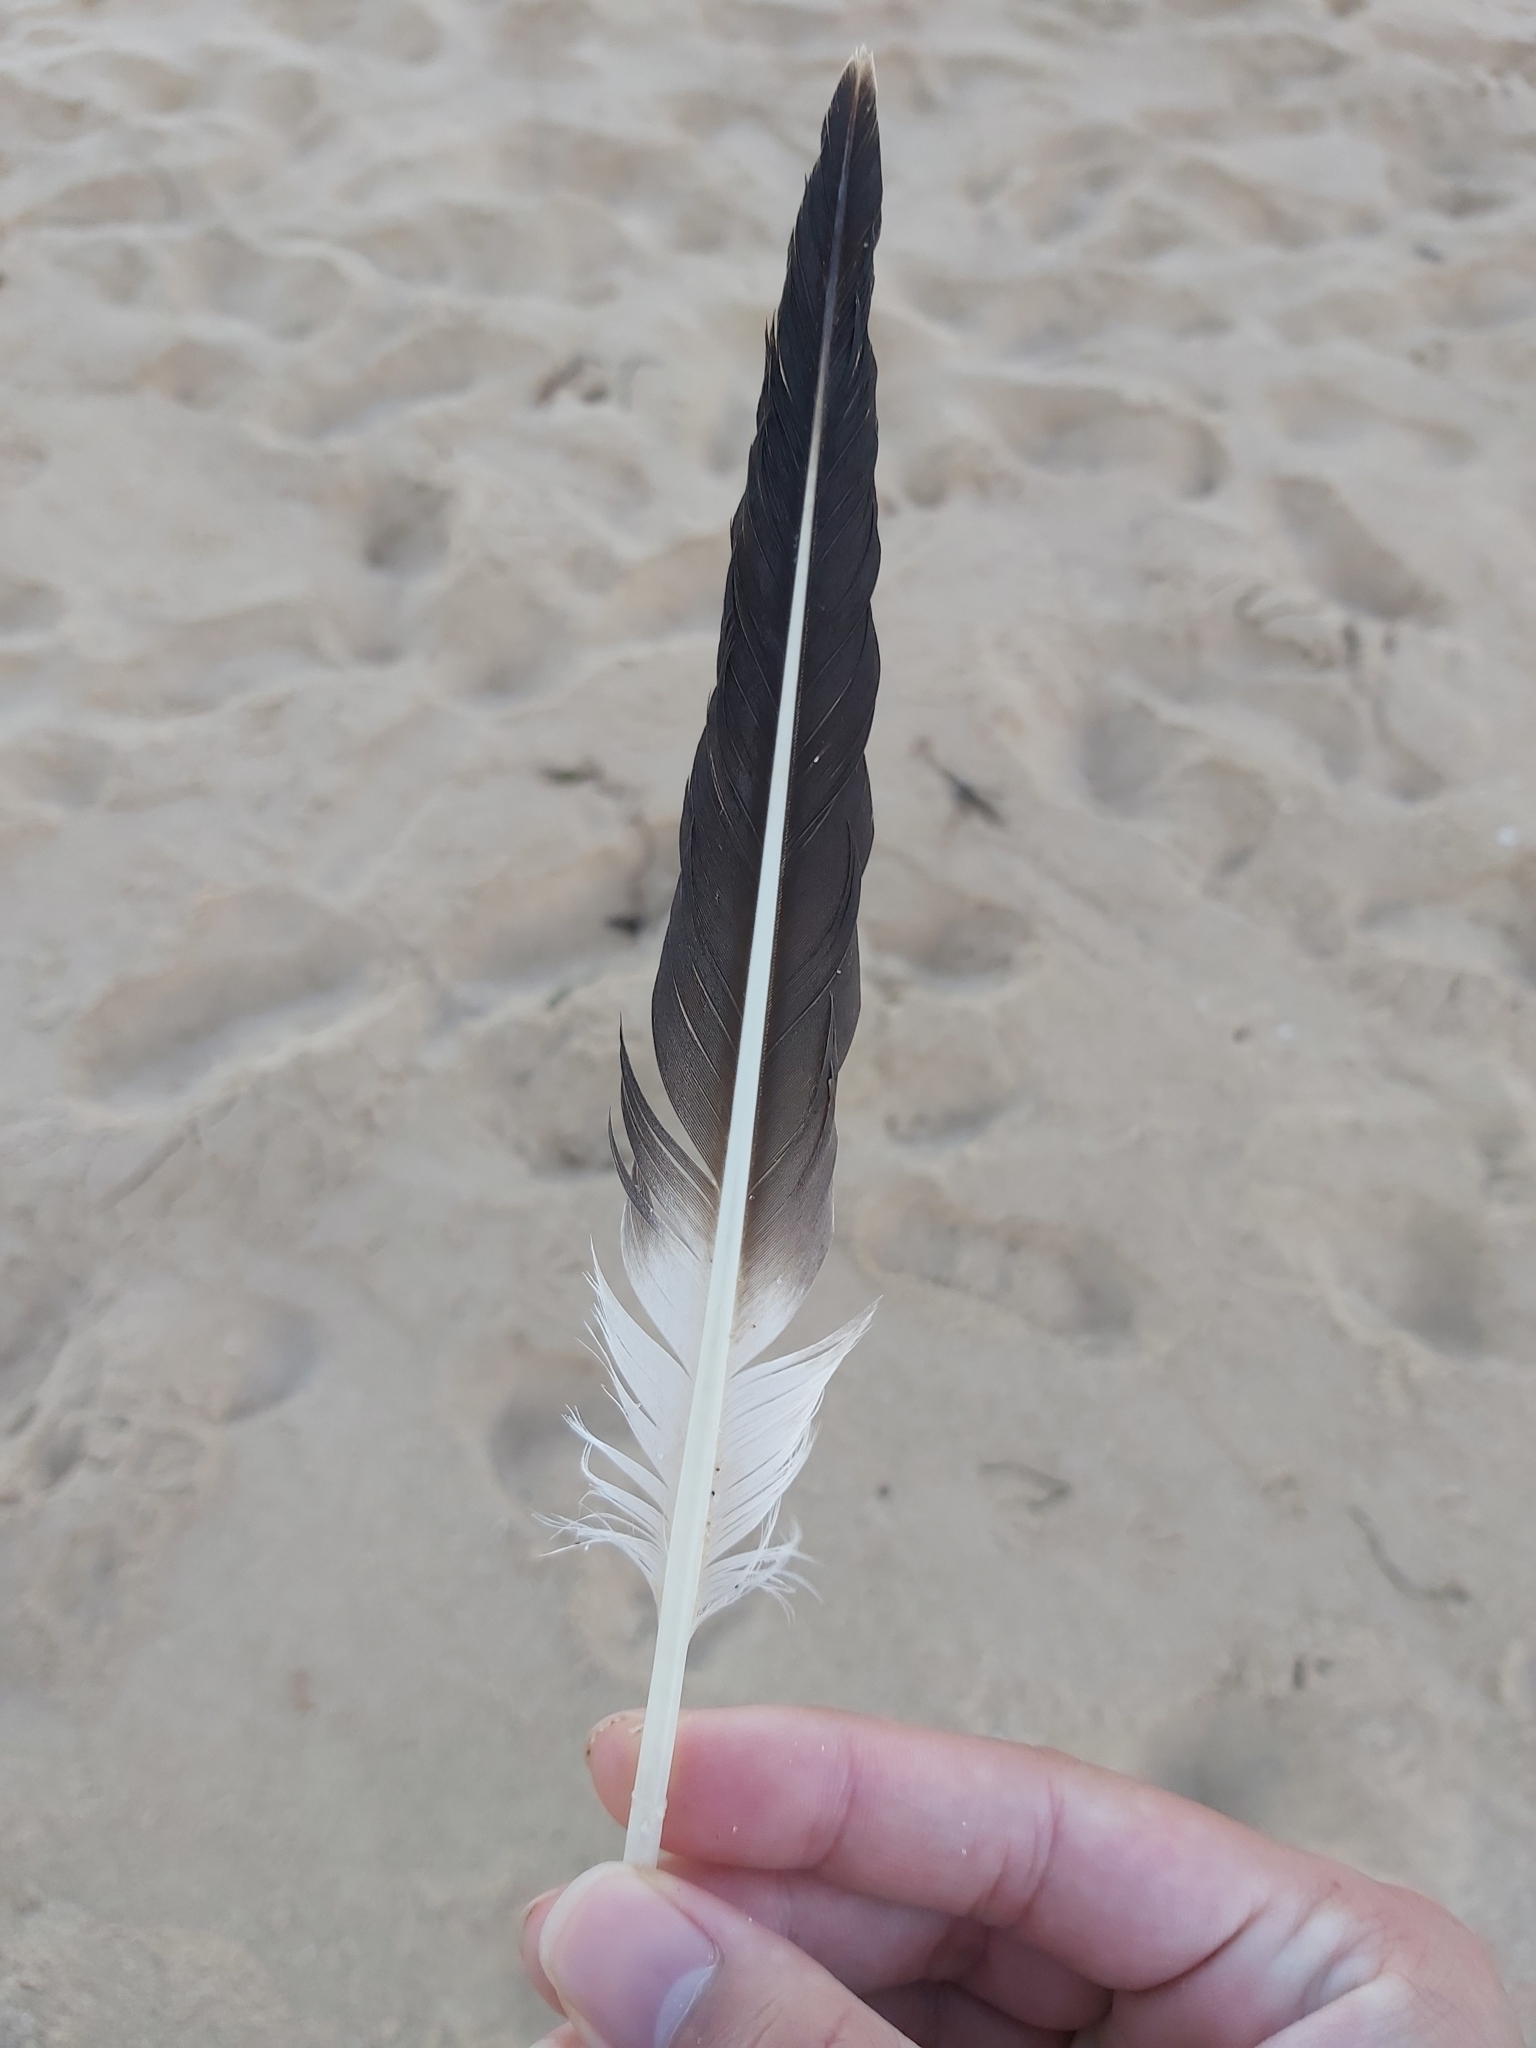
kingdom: Animalia
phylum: Chordata
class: Aves
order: Suliformes
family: Sulidae
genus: Morus
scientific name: Morus serrator
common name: Australasian gannet
